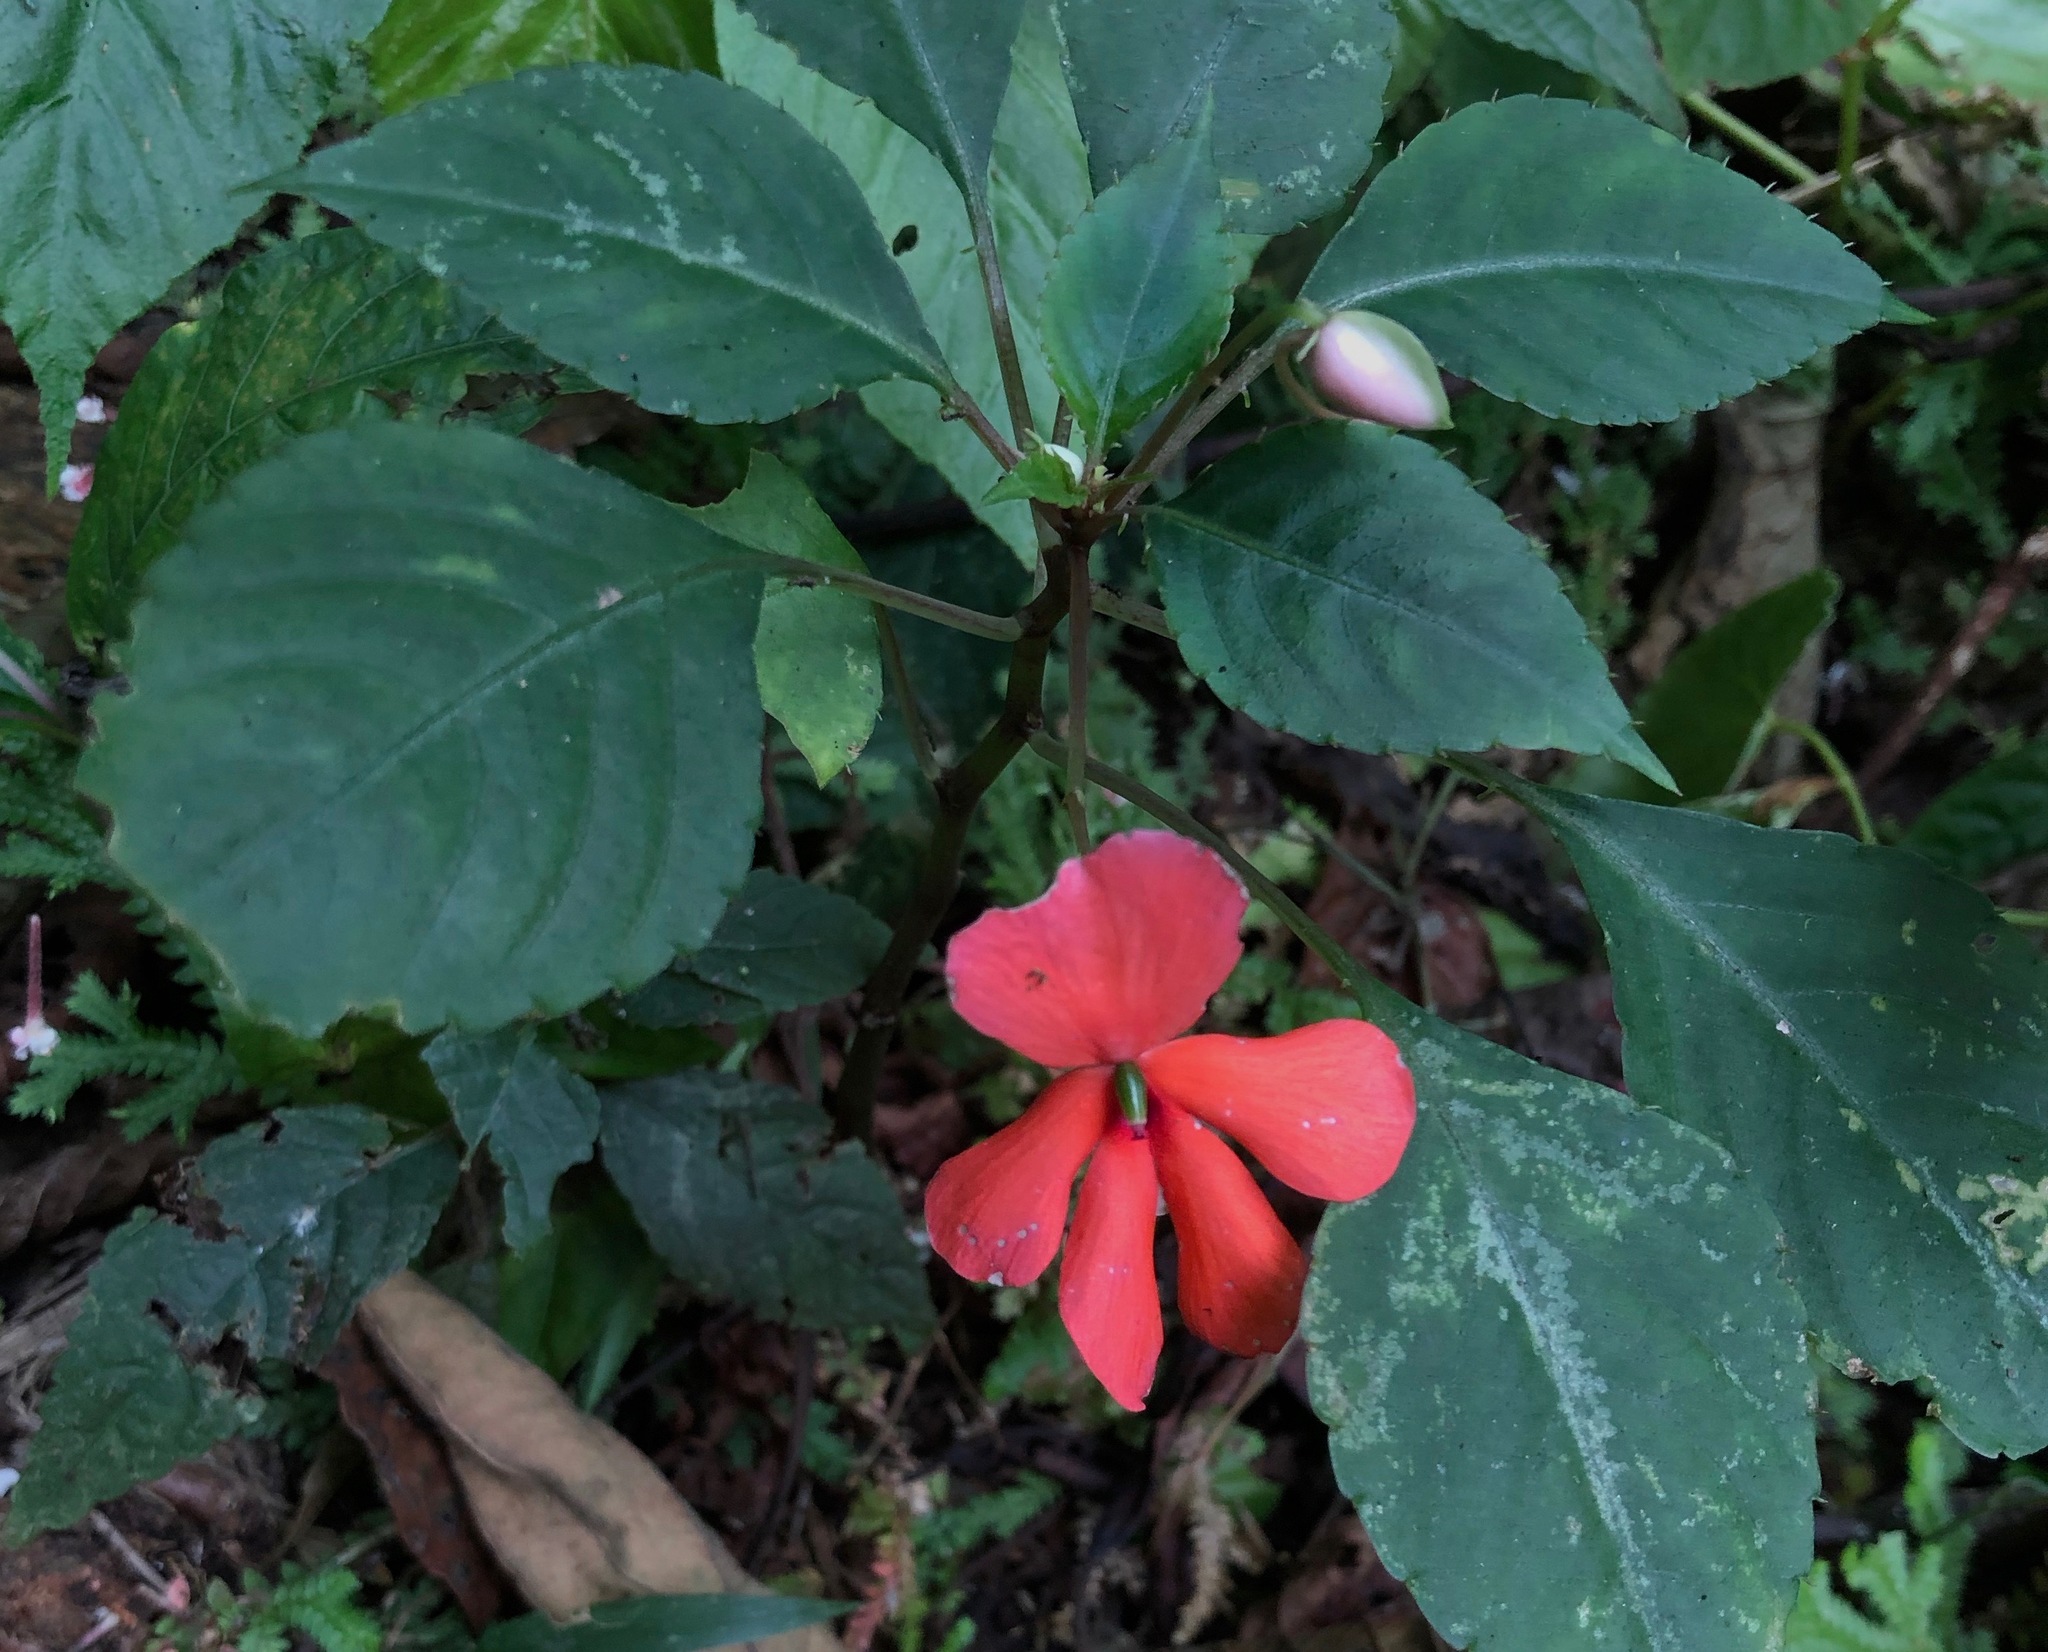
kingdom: Plantae
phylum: Tracheophyta
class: Magnoliopsida
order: Ericales
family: Balsaminaceae
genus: Impatiens
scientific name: Impatiens walleriana
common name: Buzzy lizzy
